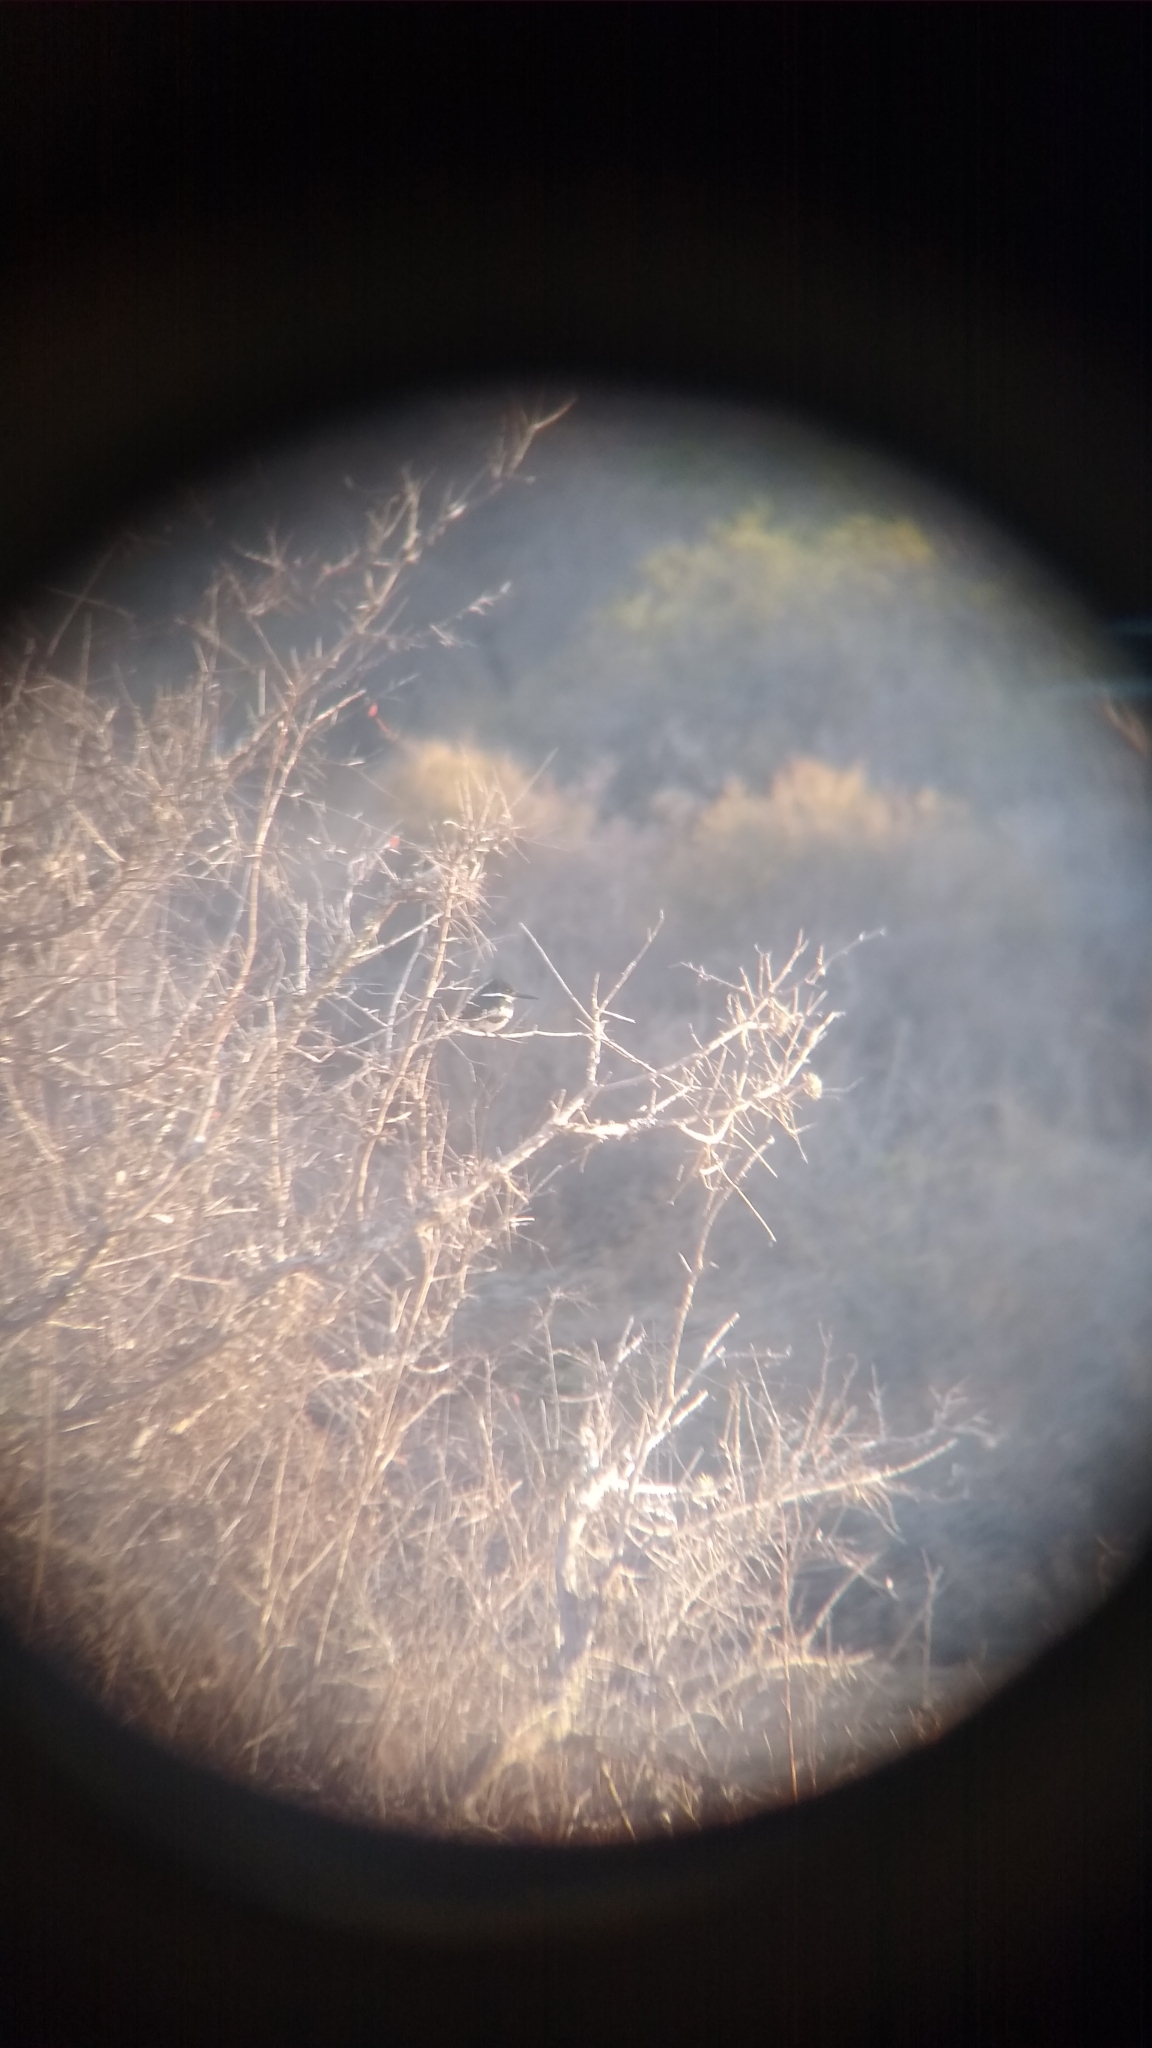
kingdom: Animalia
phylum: Chordata
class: Aves
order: Coraciiformes
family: Alcedinidae
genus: Chloroceryle
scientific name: Chloroceryle americana
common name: Green kingfisher
